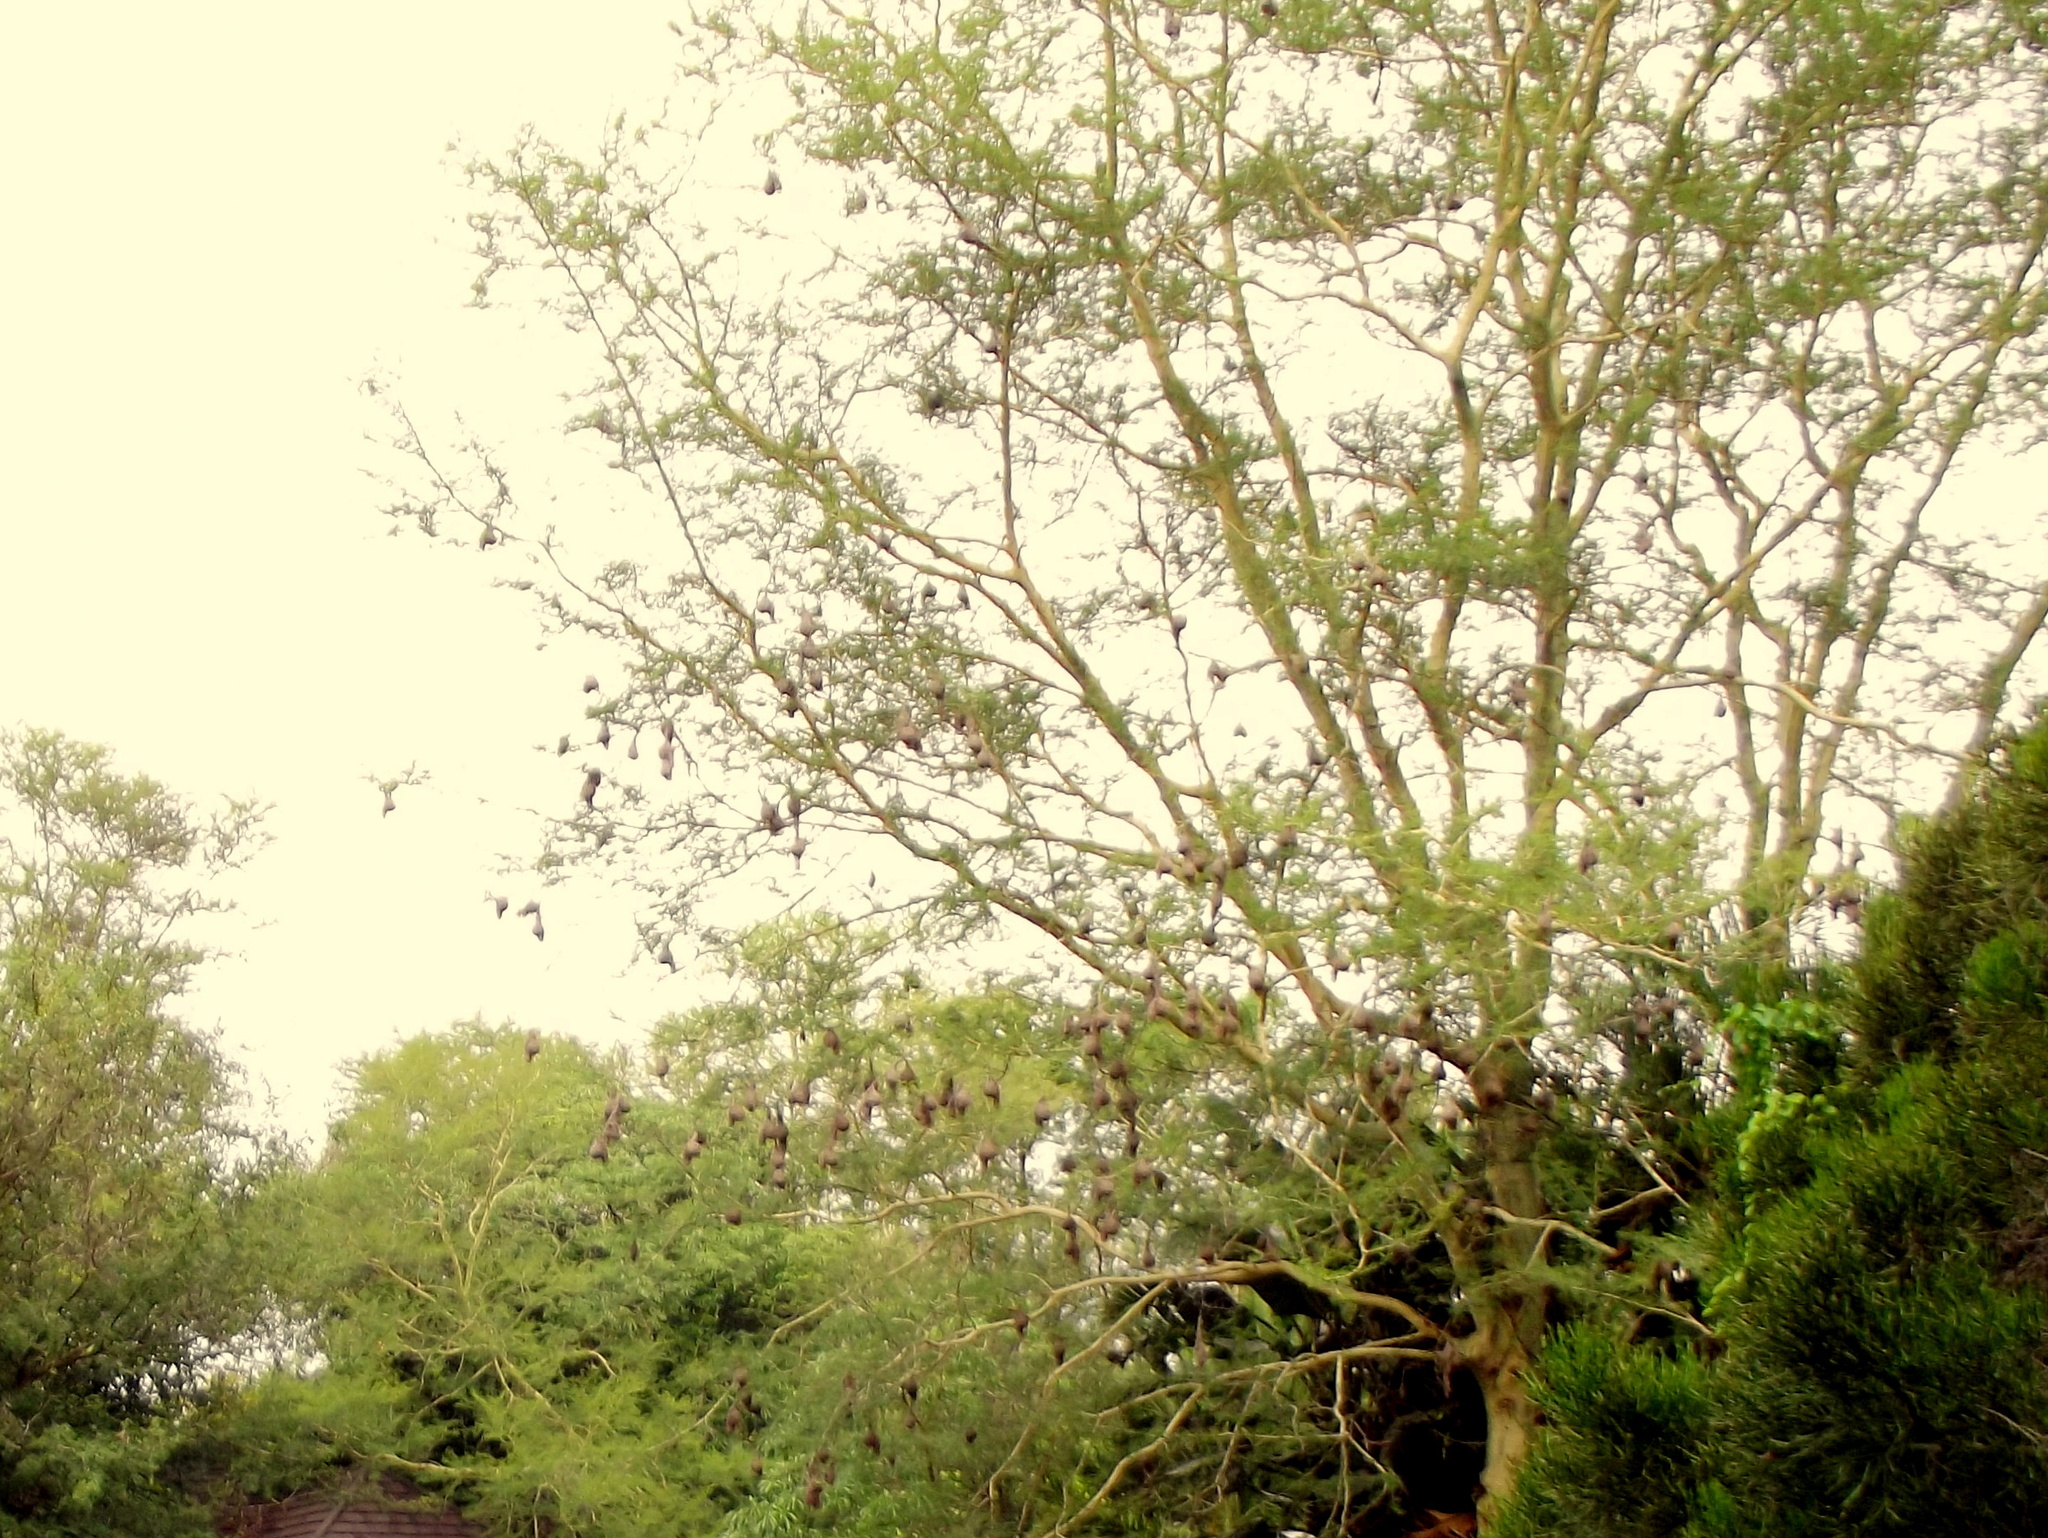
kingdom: Plantae
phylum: Tracheophyta
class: Magnoliopsida
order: Fabales
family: Fabaceae
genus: Vachellia
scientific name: Vachellia xanthophloea
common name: Fever tree
